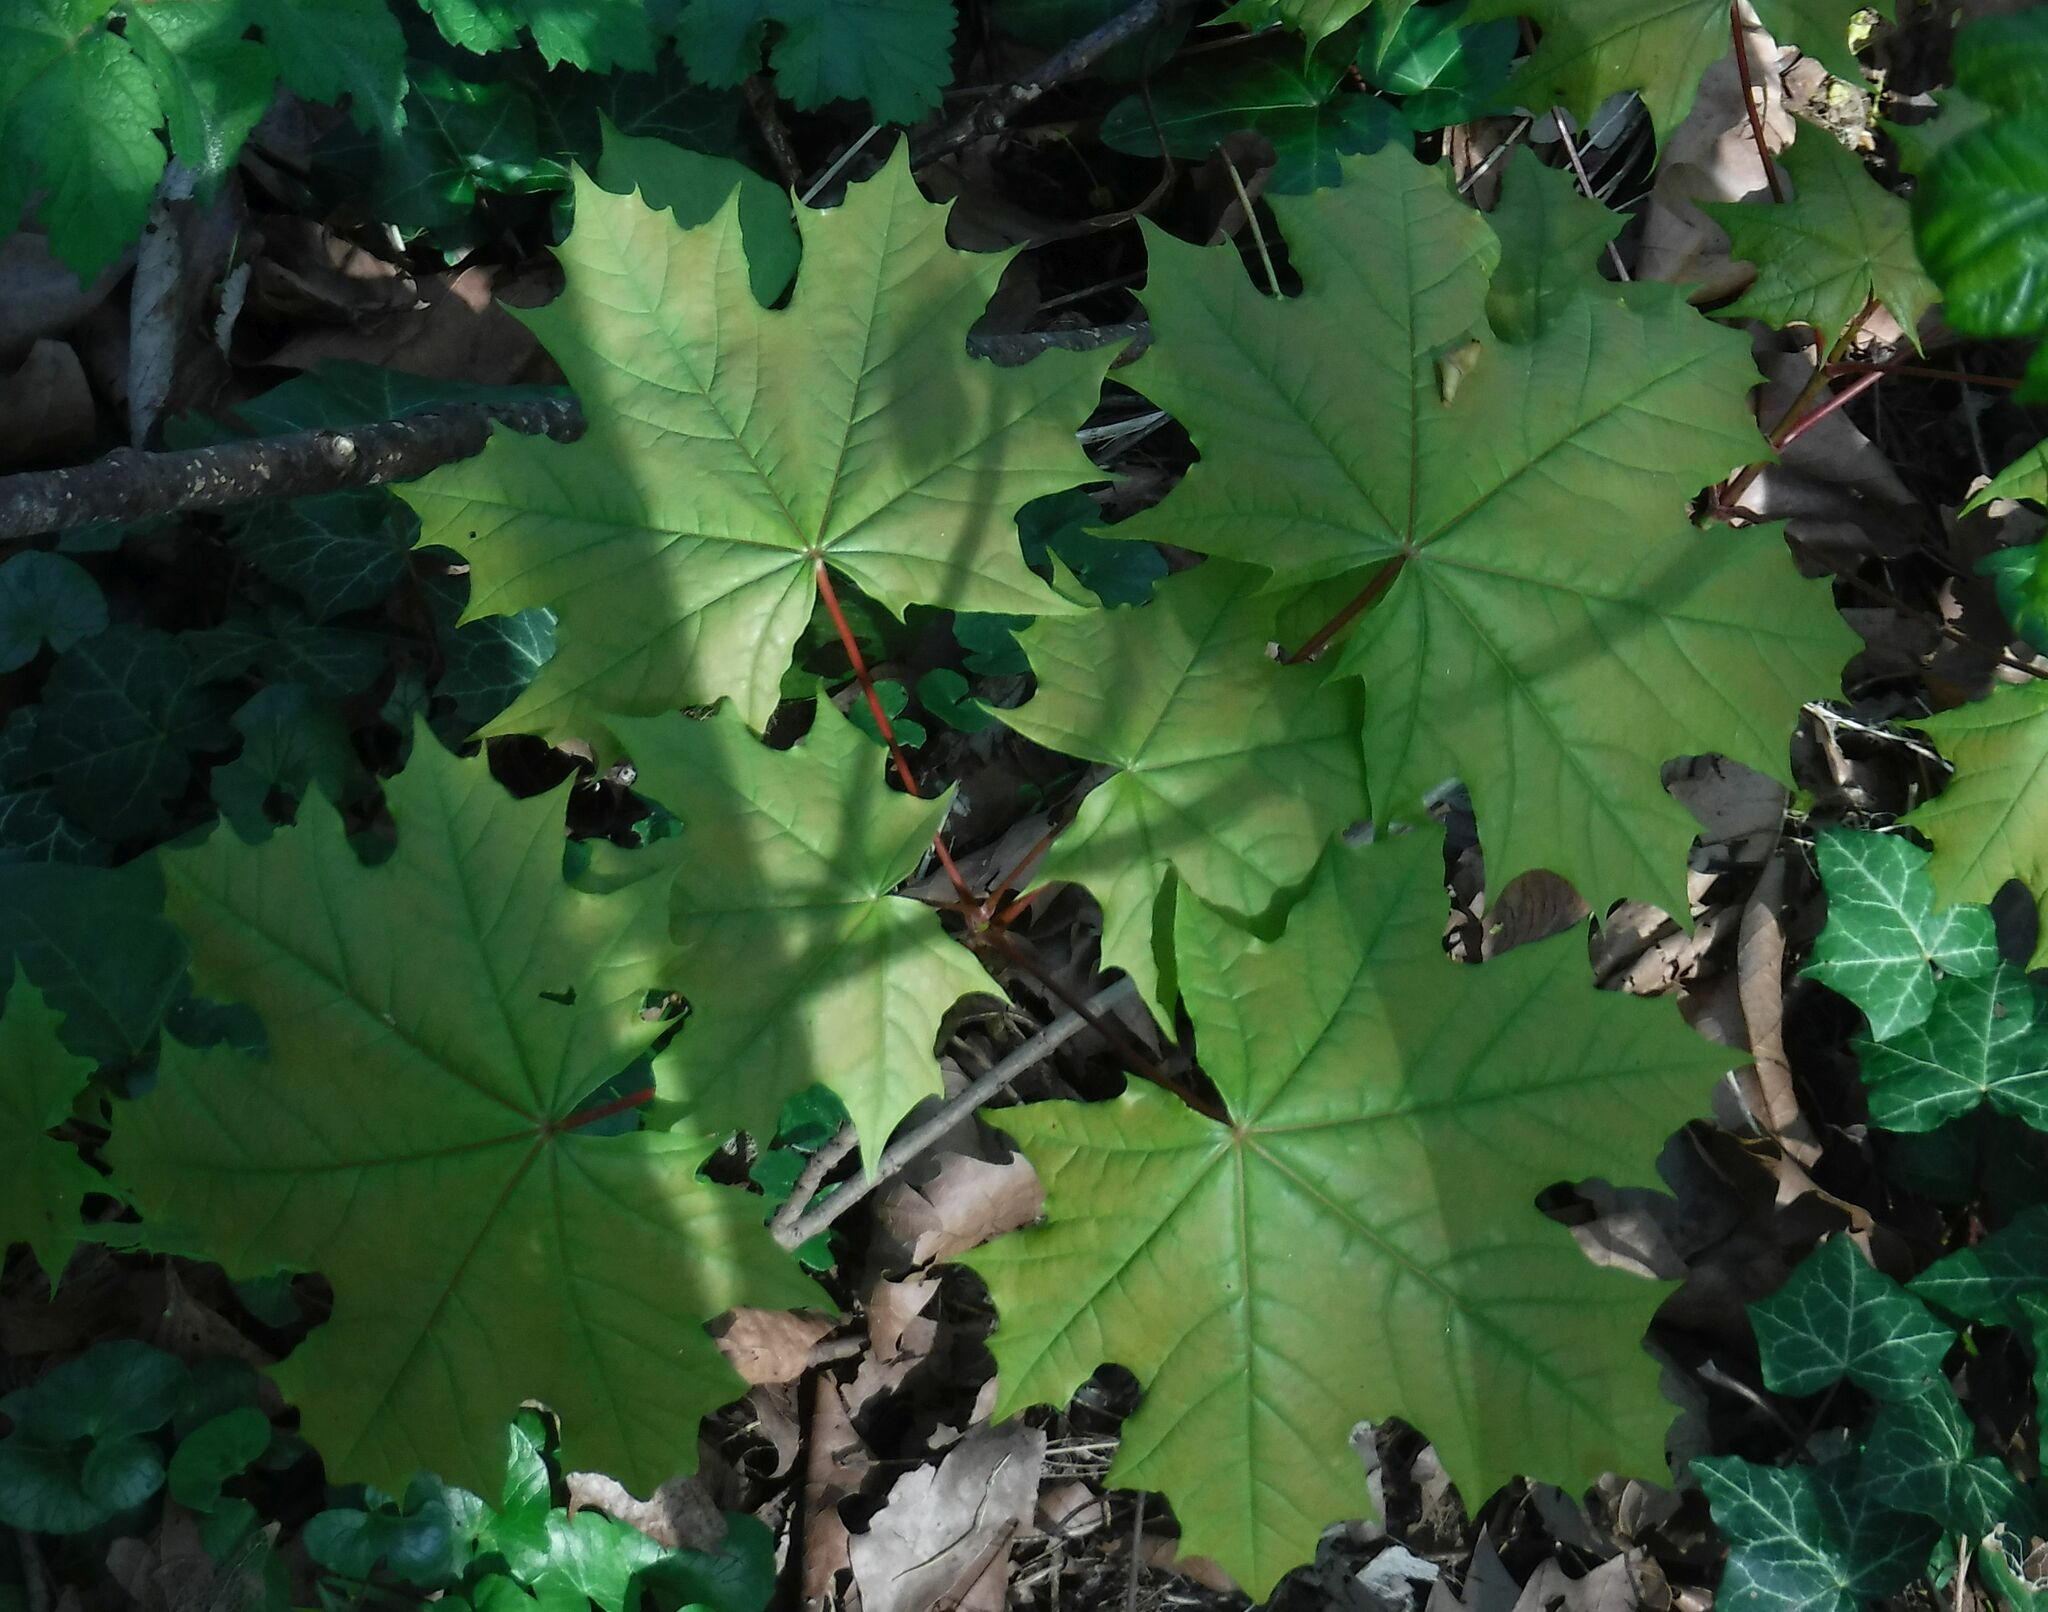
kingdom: Plantae
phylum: Tracheophyta
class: Magnoliopsida
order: Sapindales
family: Sapindaceae
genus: Acer
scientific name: Acer platanoides
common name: Norway maple
